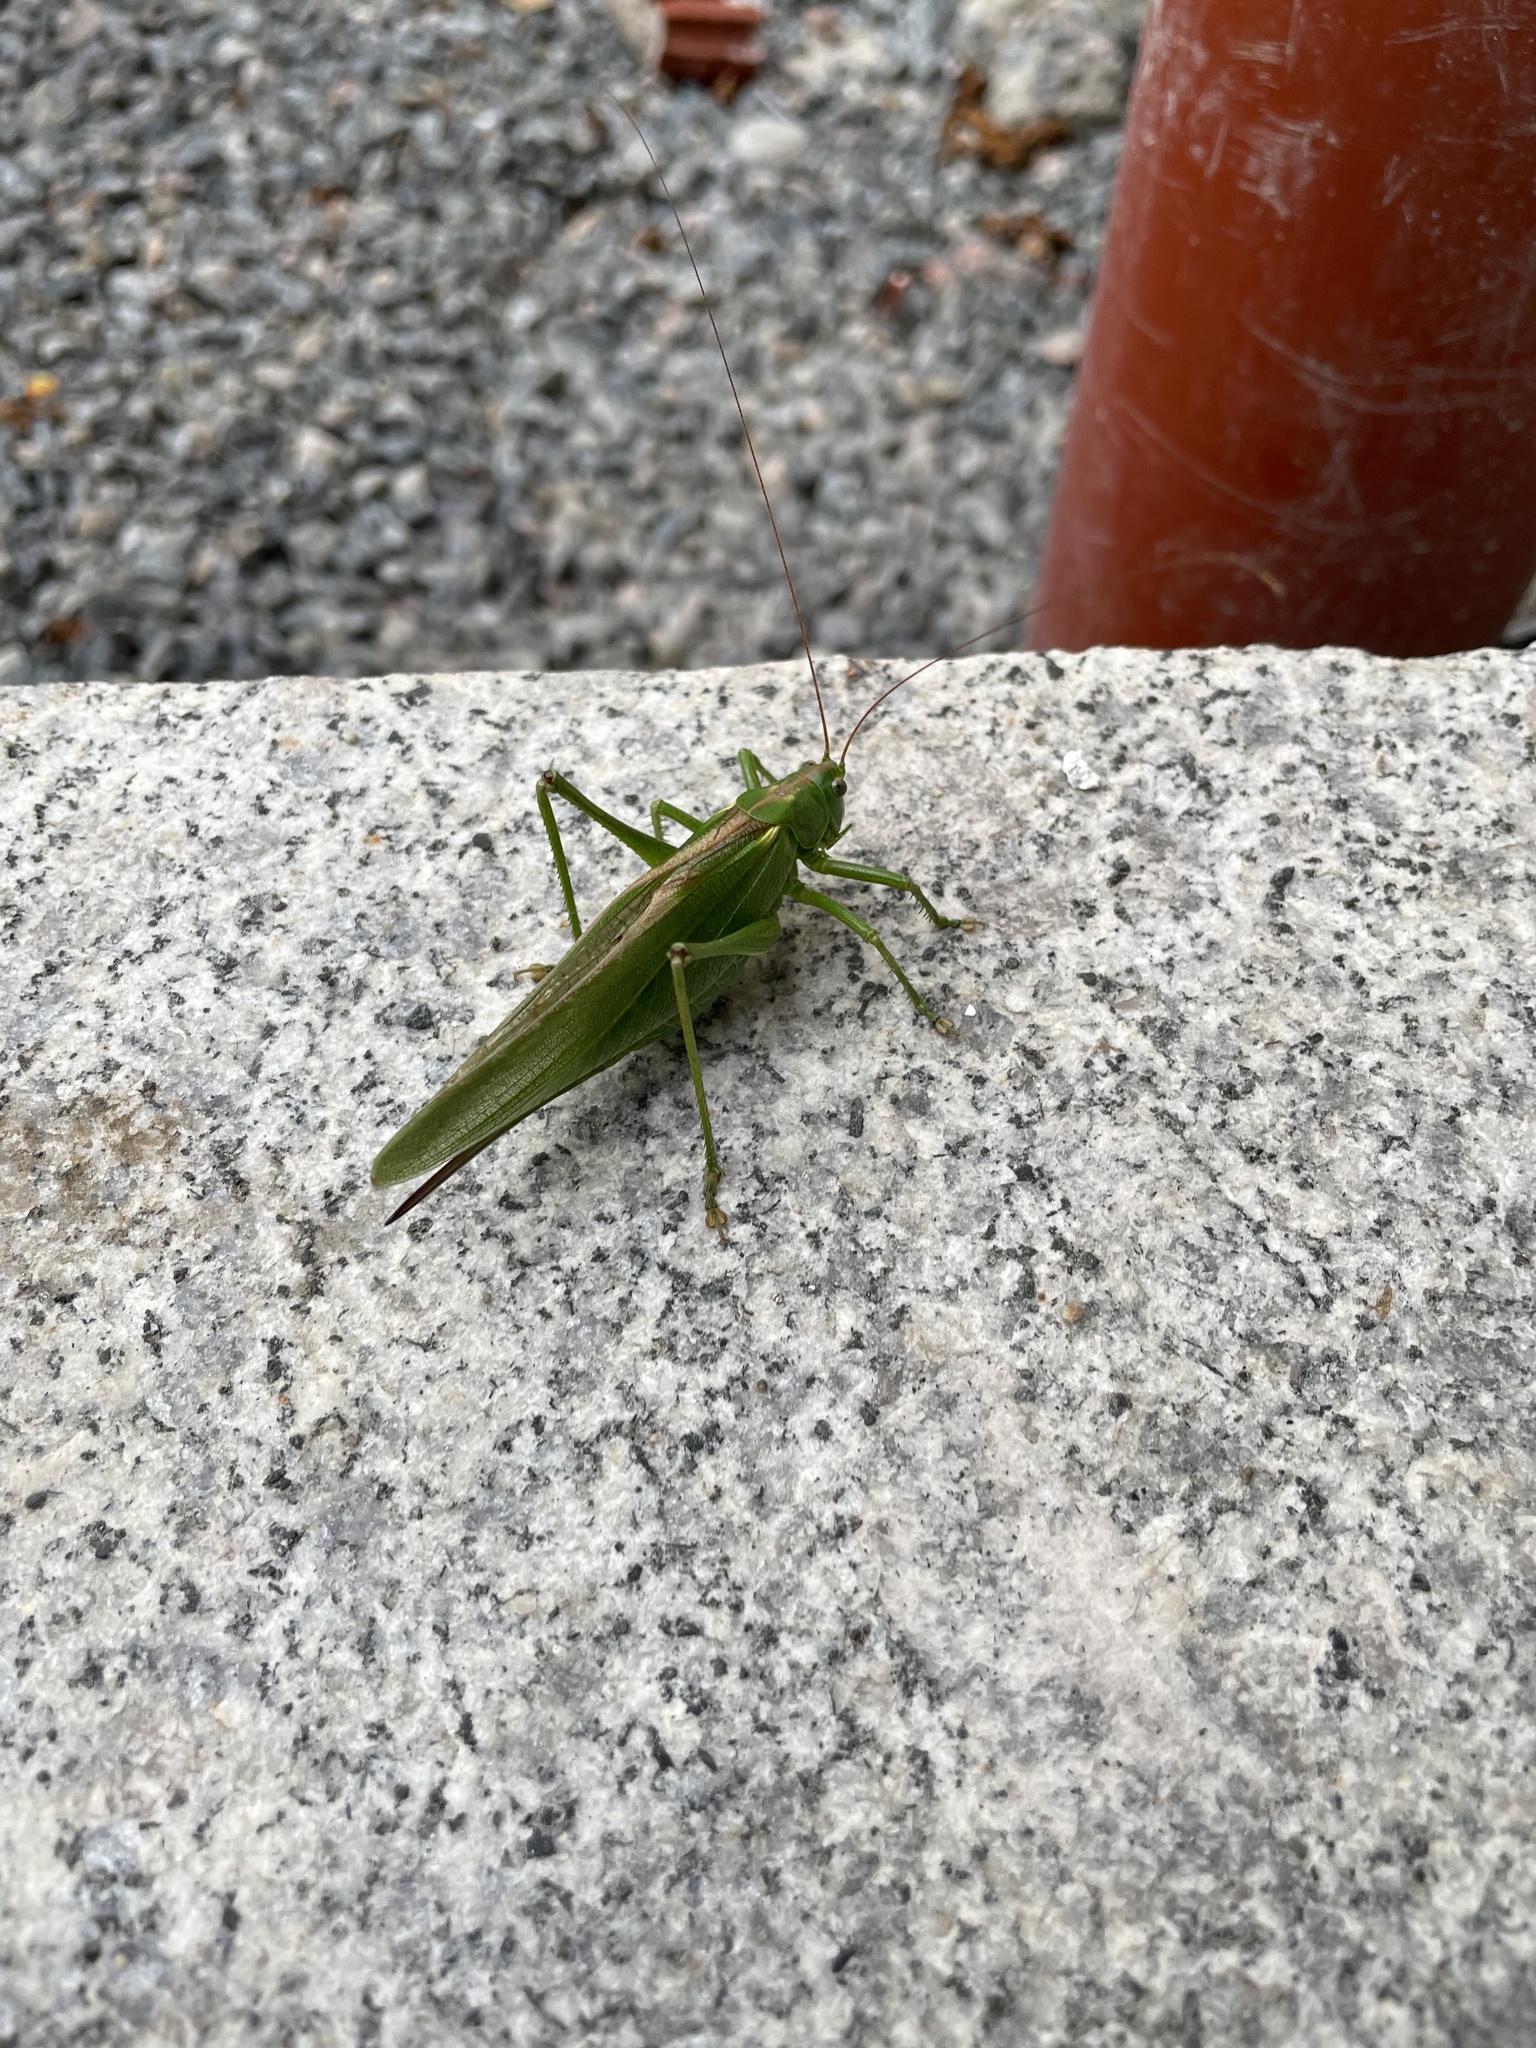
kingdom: Animalia
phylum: Arthropoda
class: Insecta
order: Orthoptera
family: Tettigoniidae
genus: Tettigonia
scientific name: Tettigonia viridissima
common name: Great green bush-cricket
